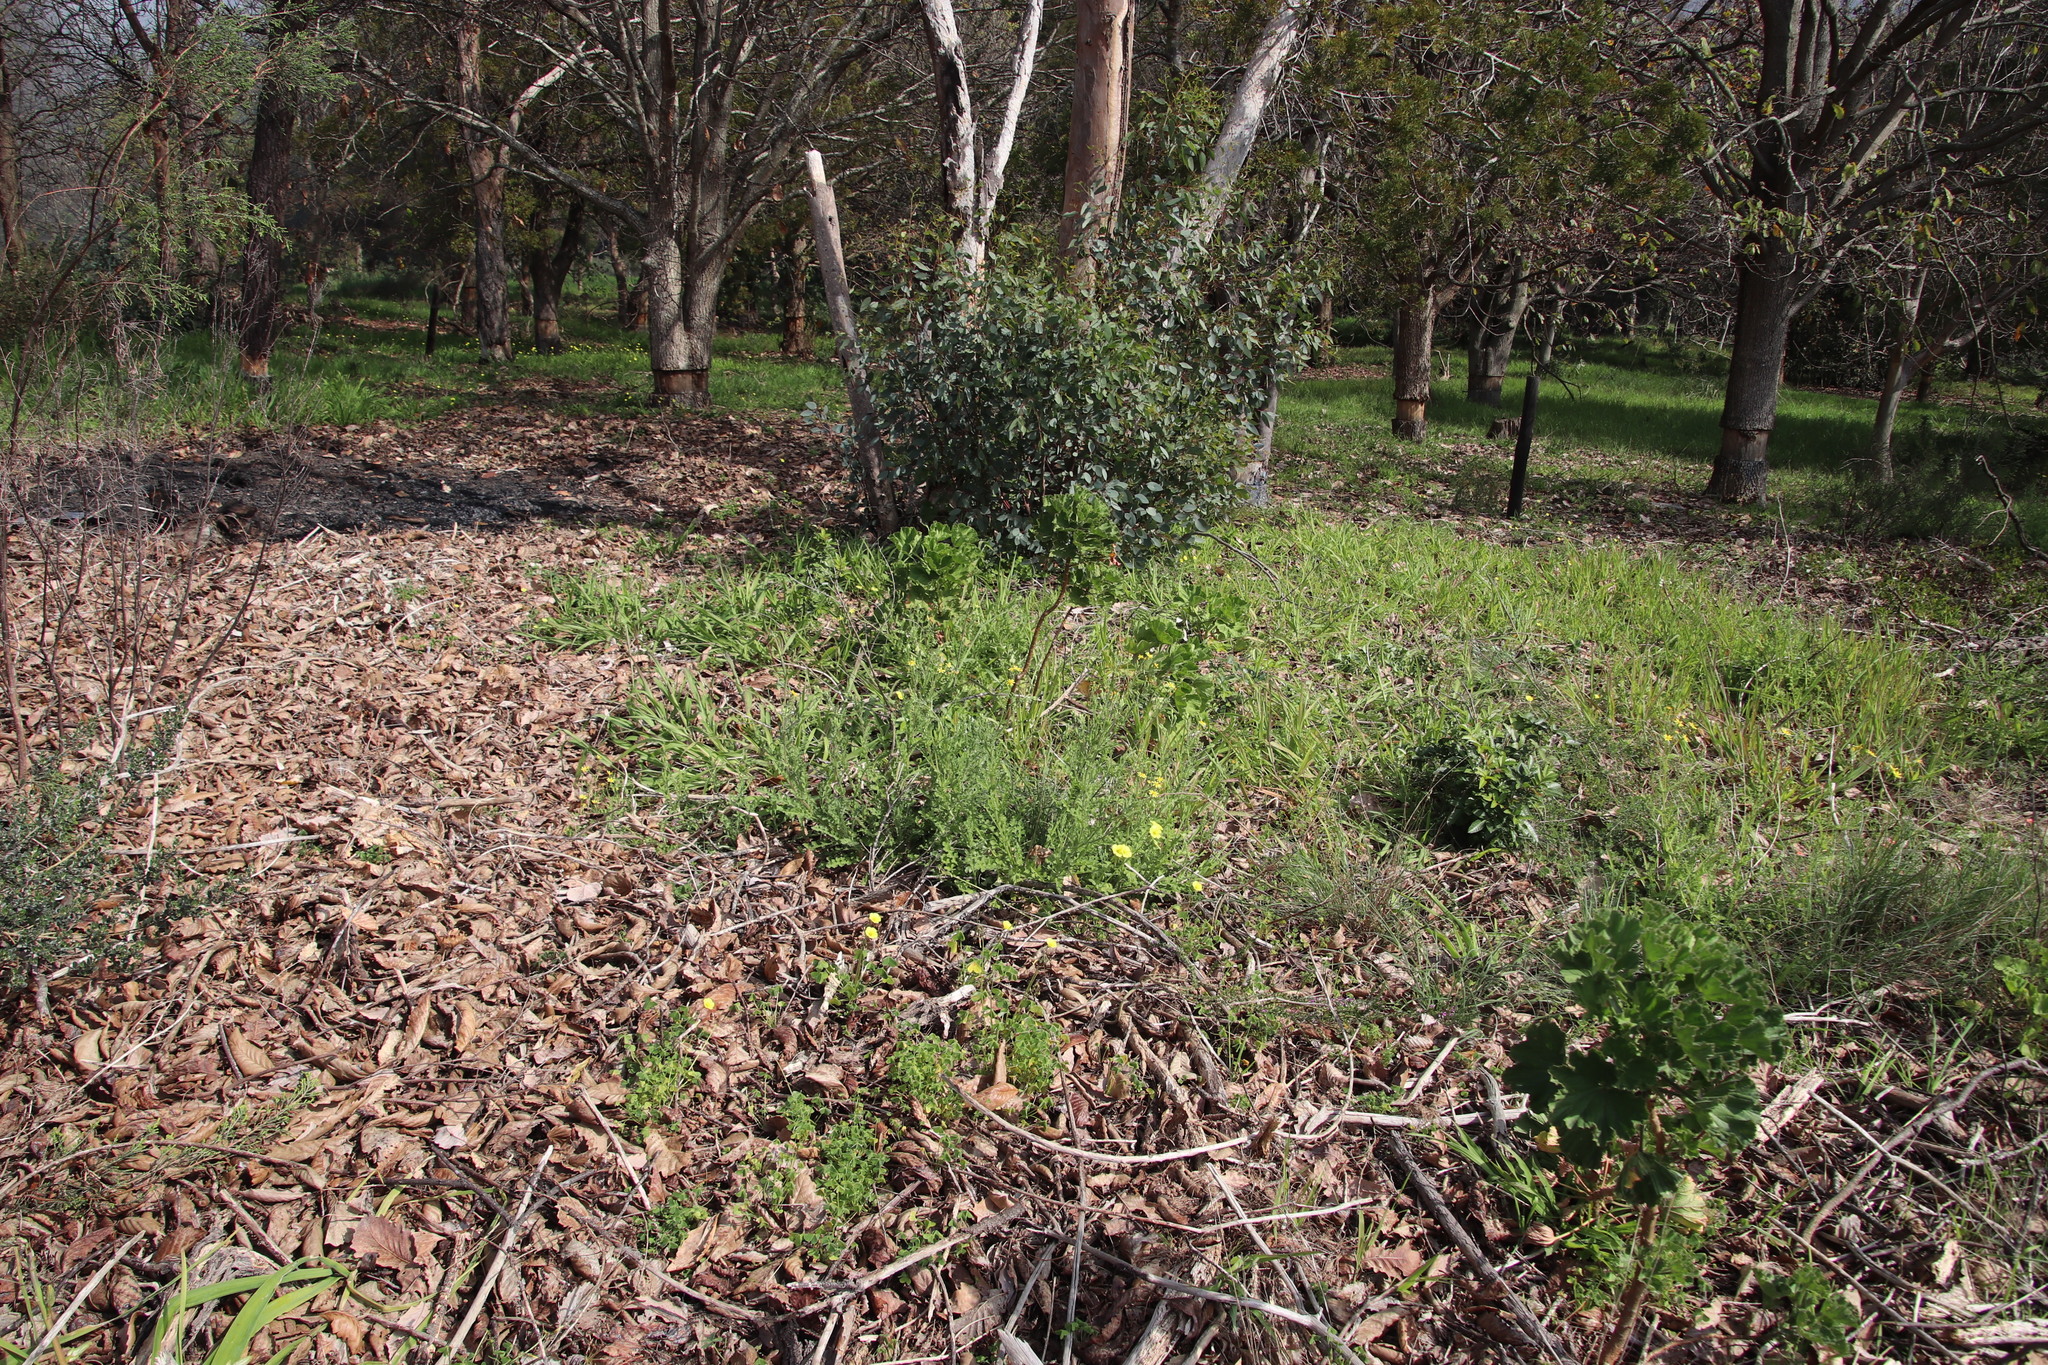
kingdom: Plantae
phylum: Tracheophyta
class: Magnoliopsida
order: Asterales
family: Asteraceae
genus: Senecio
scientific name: Senecio hastatus
